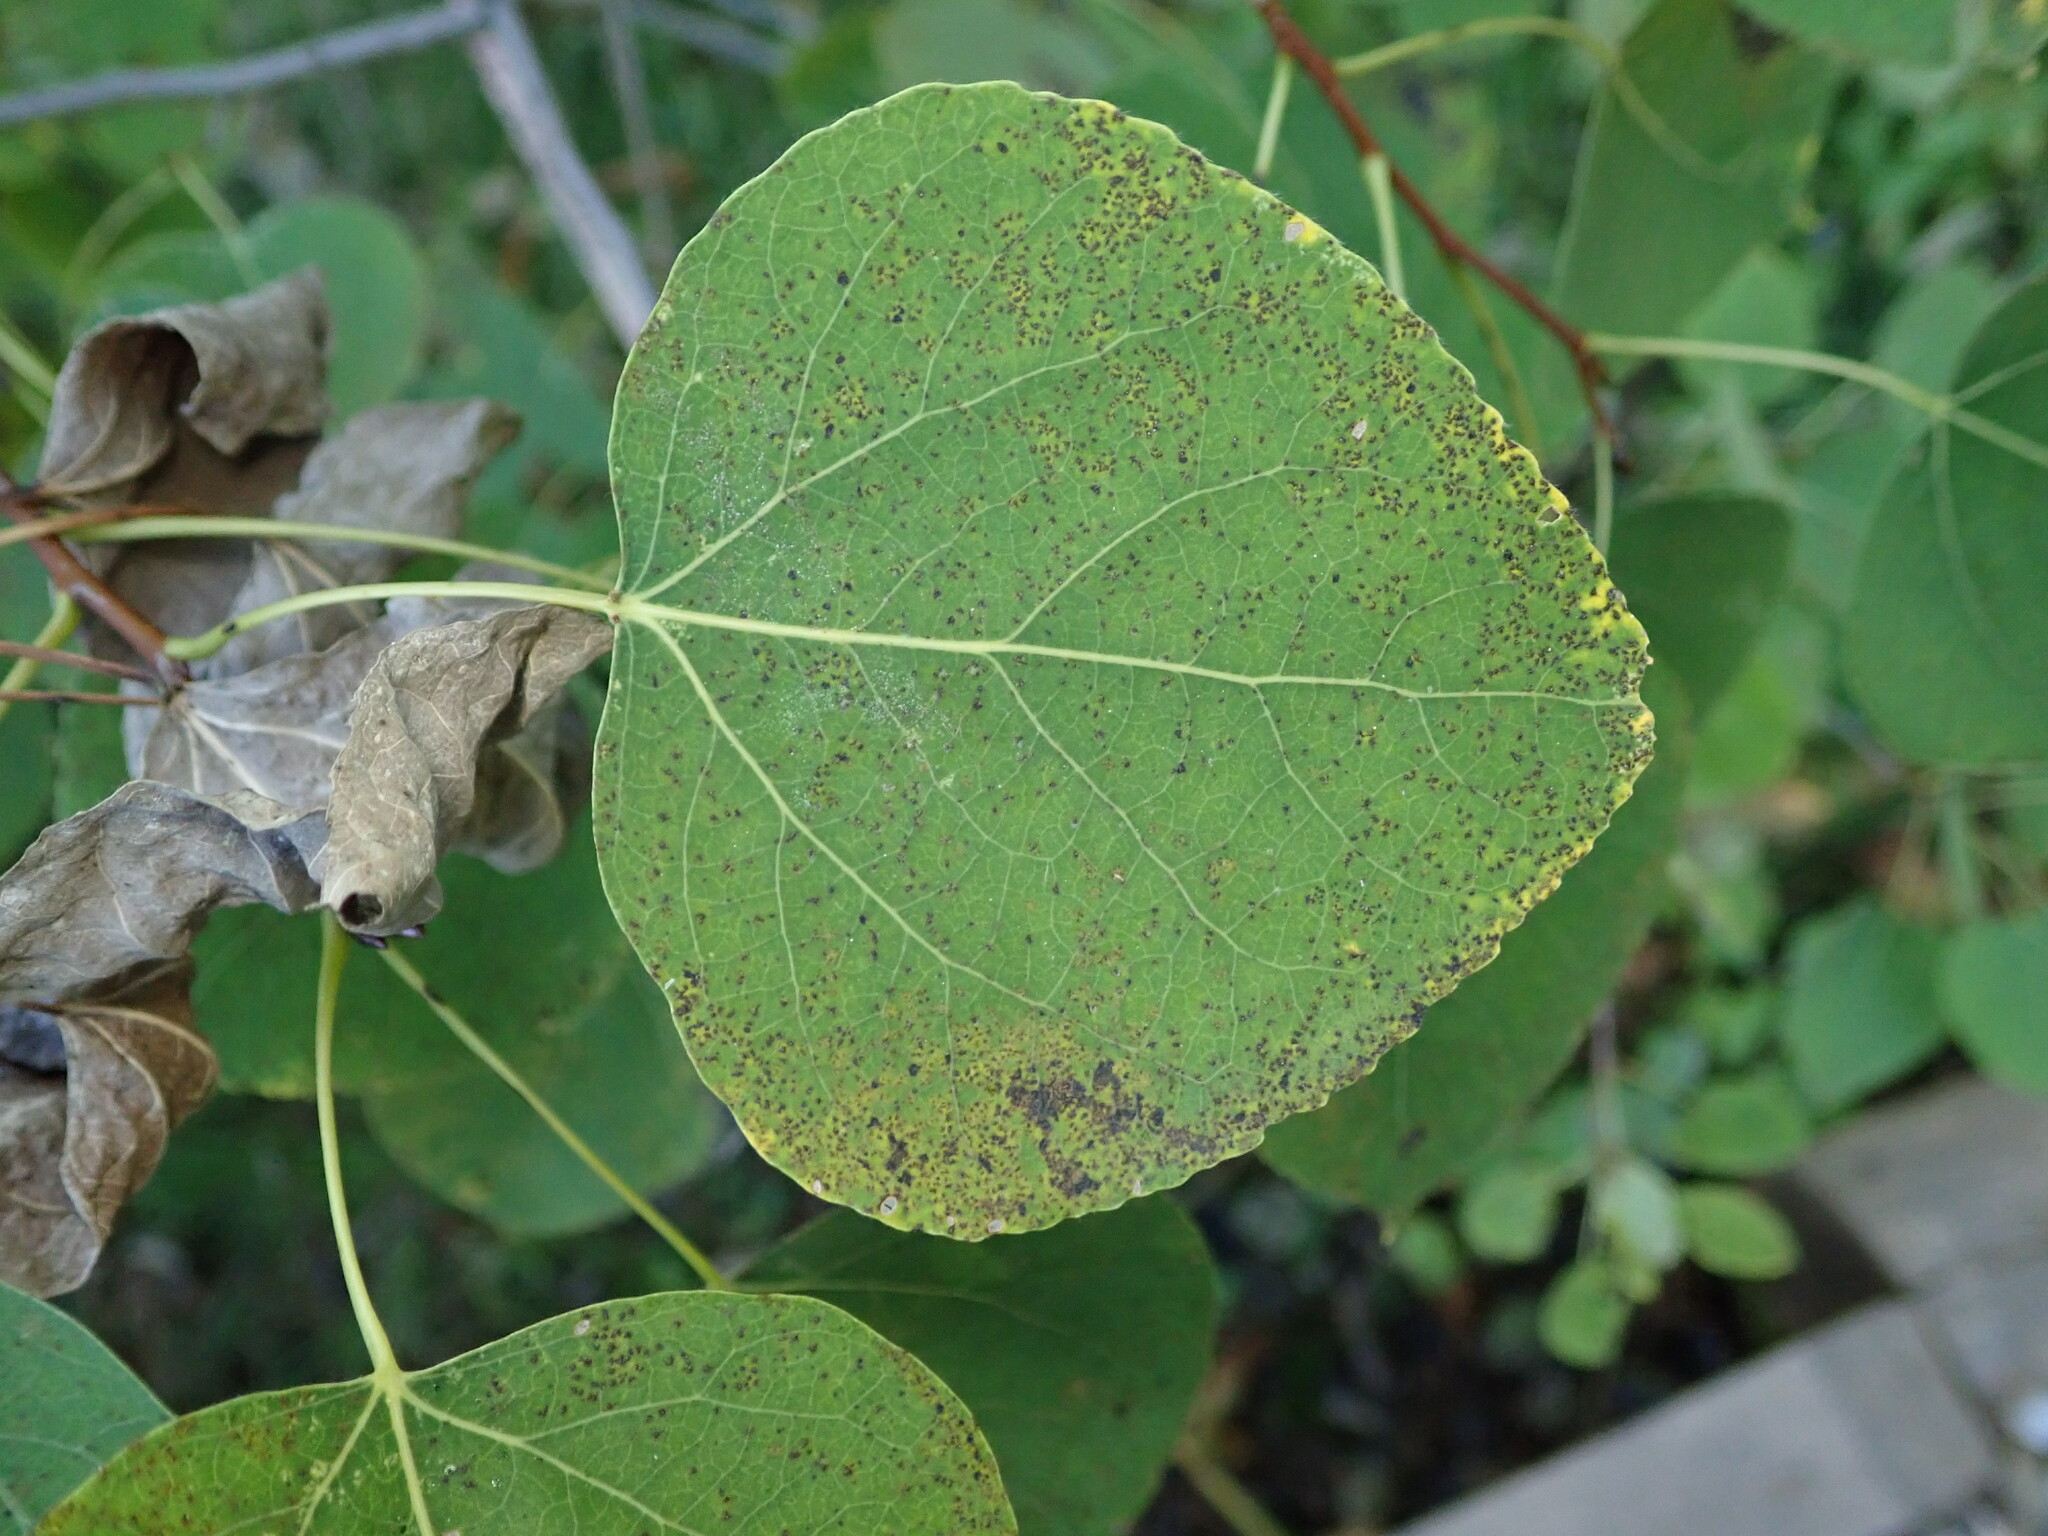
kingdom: Plantae
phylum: Tracheophyta
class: Magnoliopsida
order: Malpighiales
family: Salicaceae
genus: Populus
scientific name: Populus tremuloides
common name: Quaking aspen
